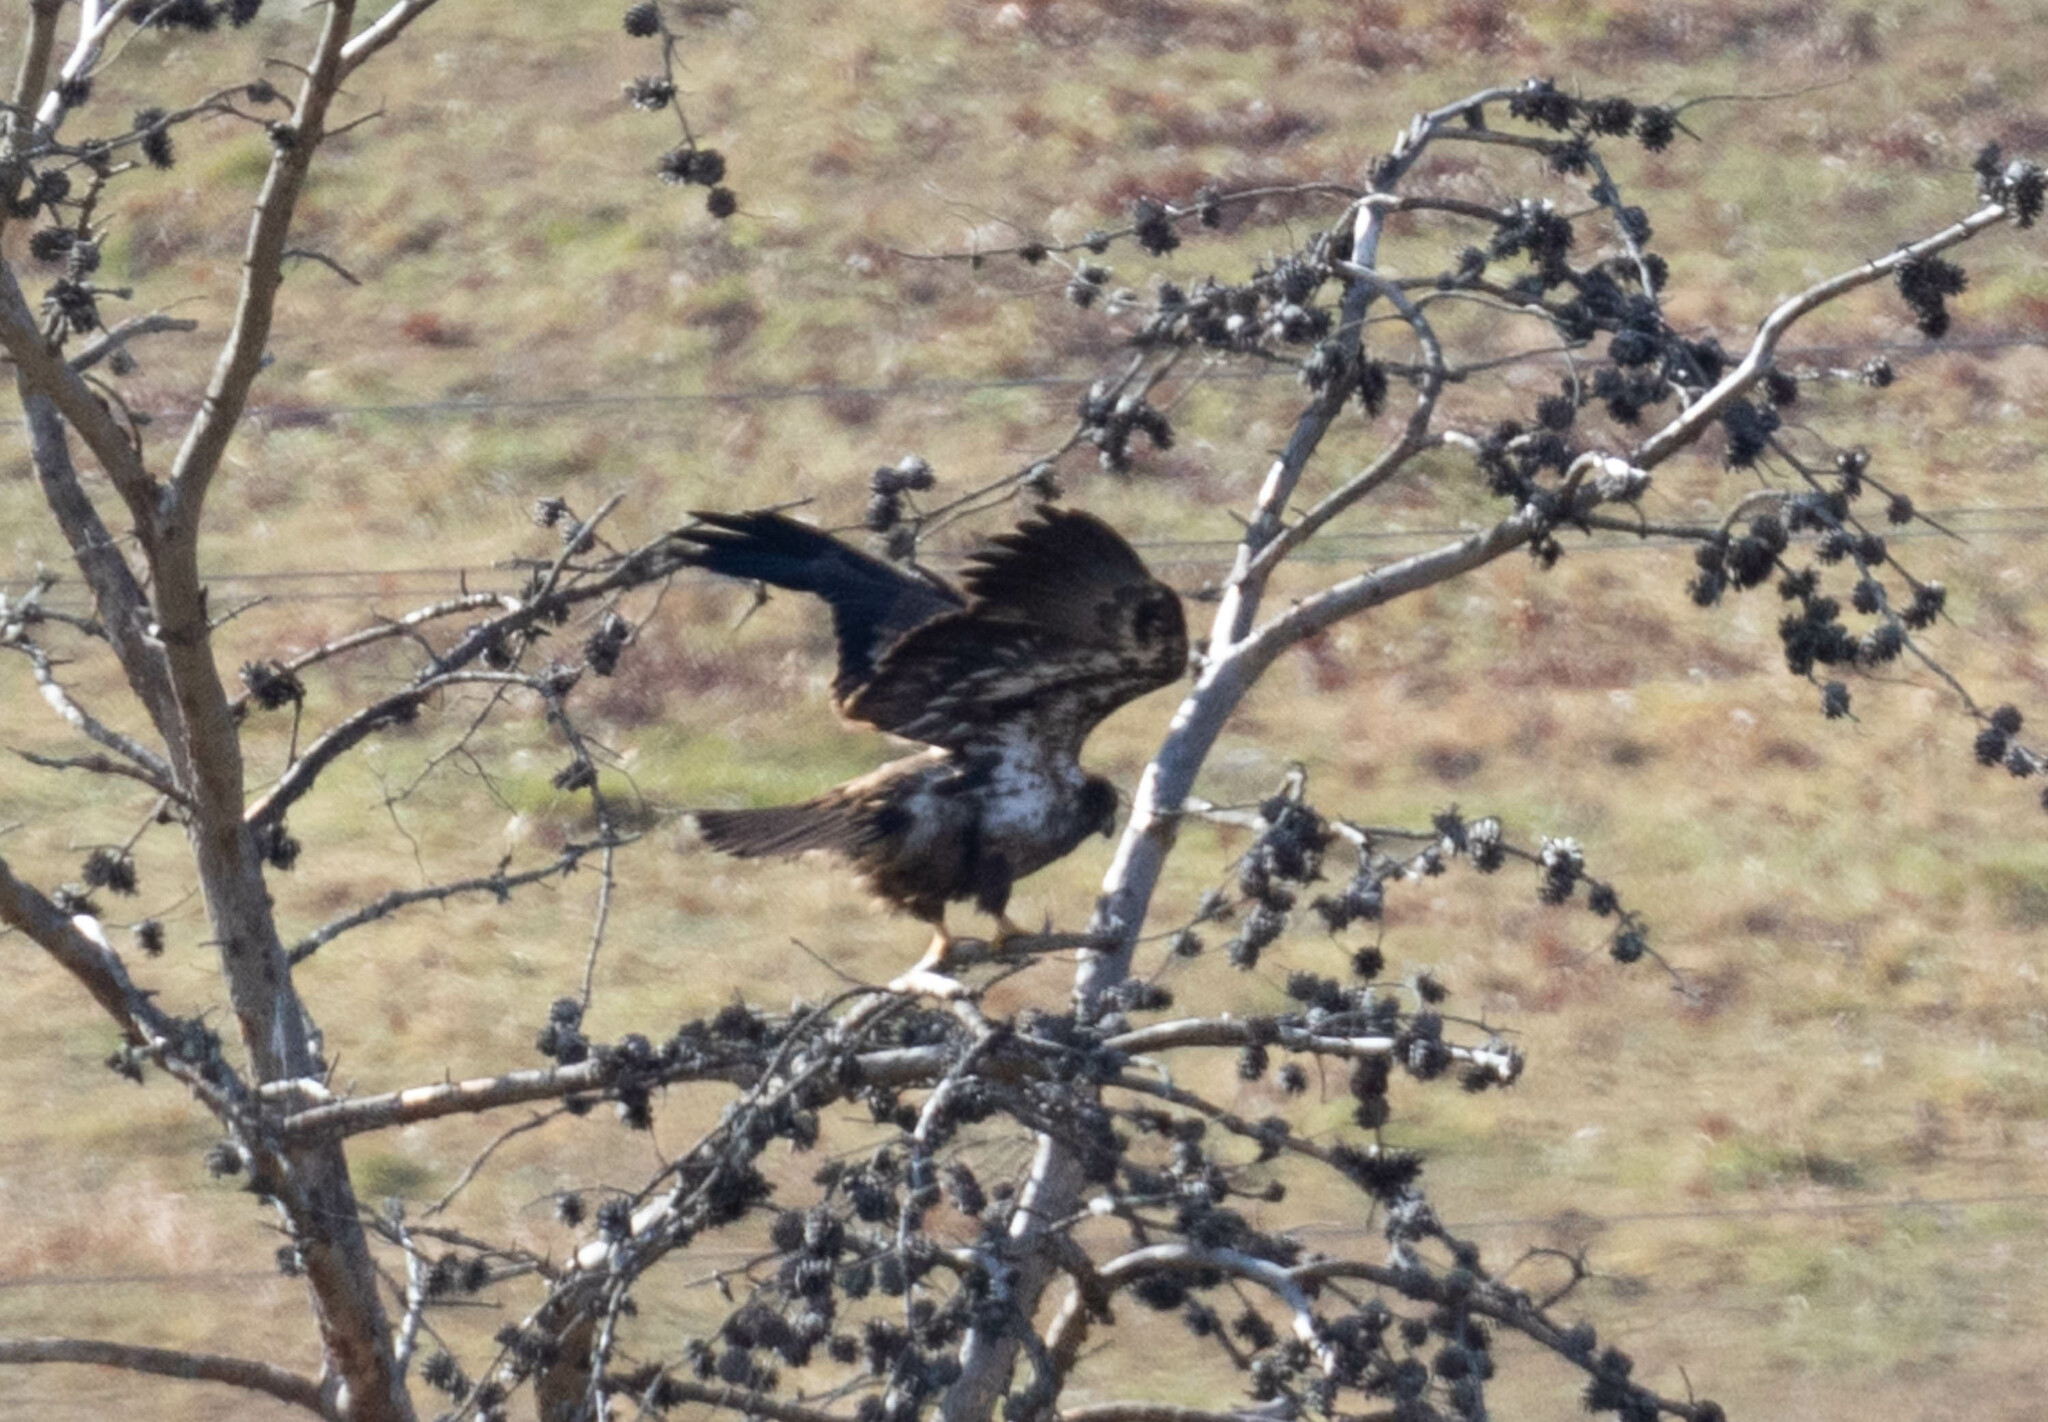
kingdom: Animalia
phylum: Chordata
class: Aves
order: Accipitriformes
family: Accipitridae
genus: Haliaeetus
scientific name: Haliaeetus leucocephalus
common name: Bald eagle
